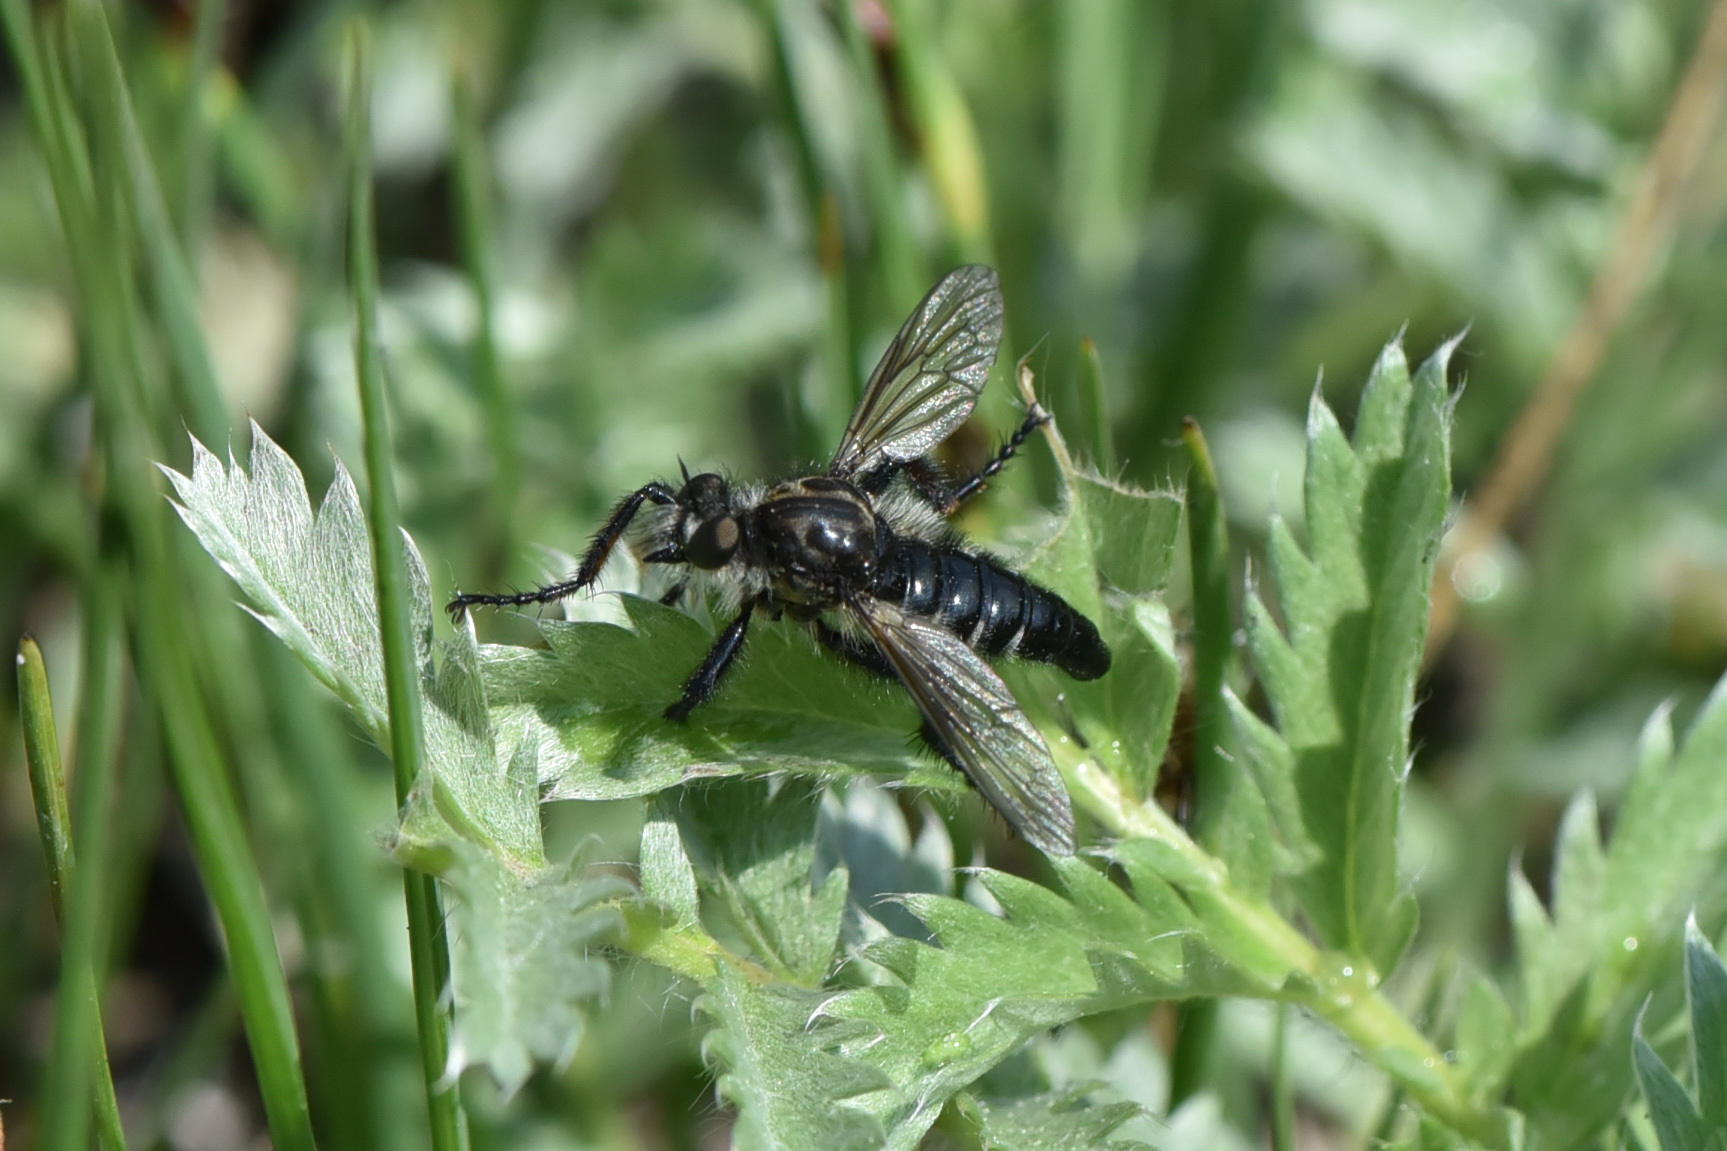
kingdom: Animalia
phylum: Arthropoda
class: Insecta
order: Diptera
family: Asilidae
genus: Cyrtopogon
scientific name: Cyrtopogon willistoni
